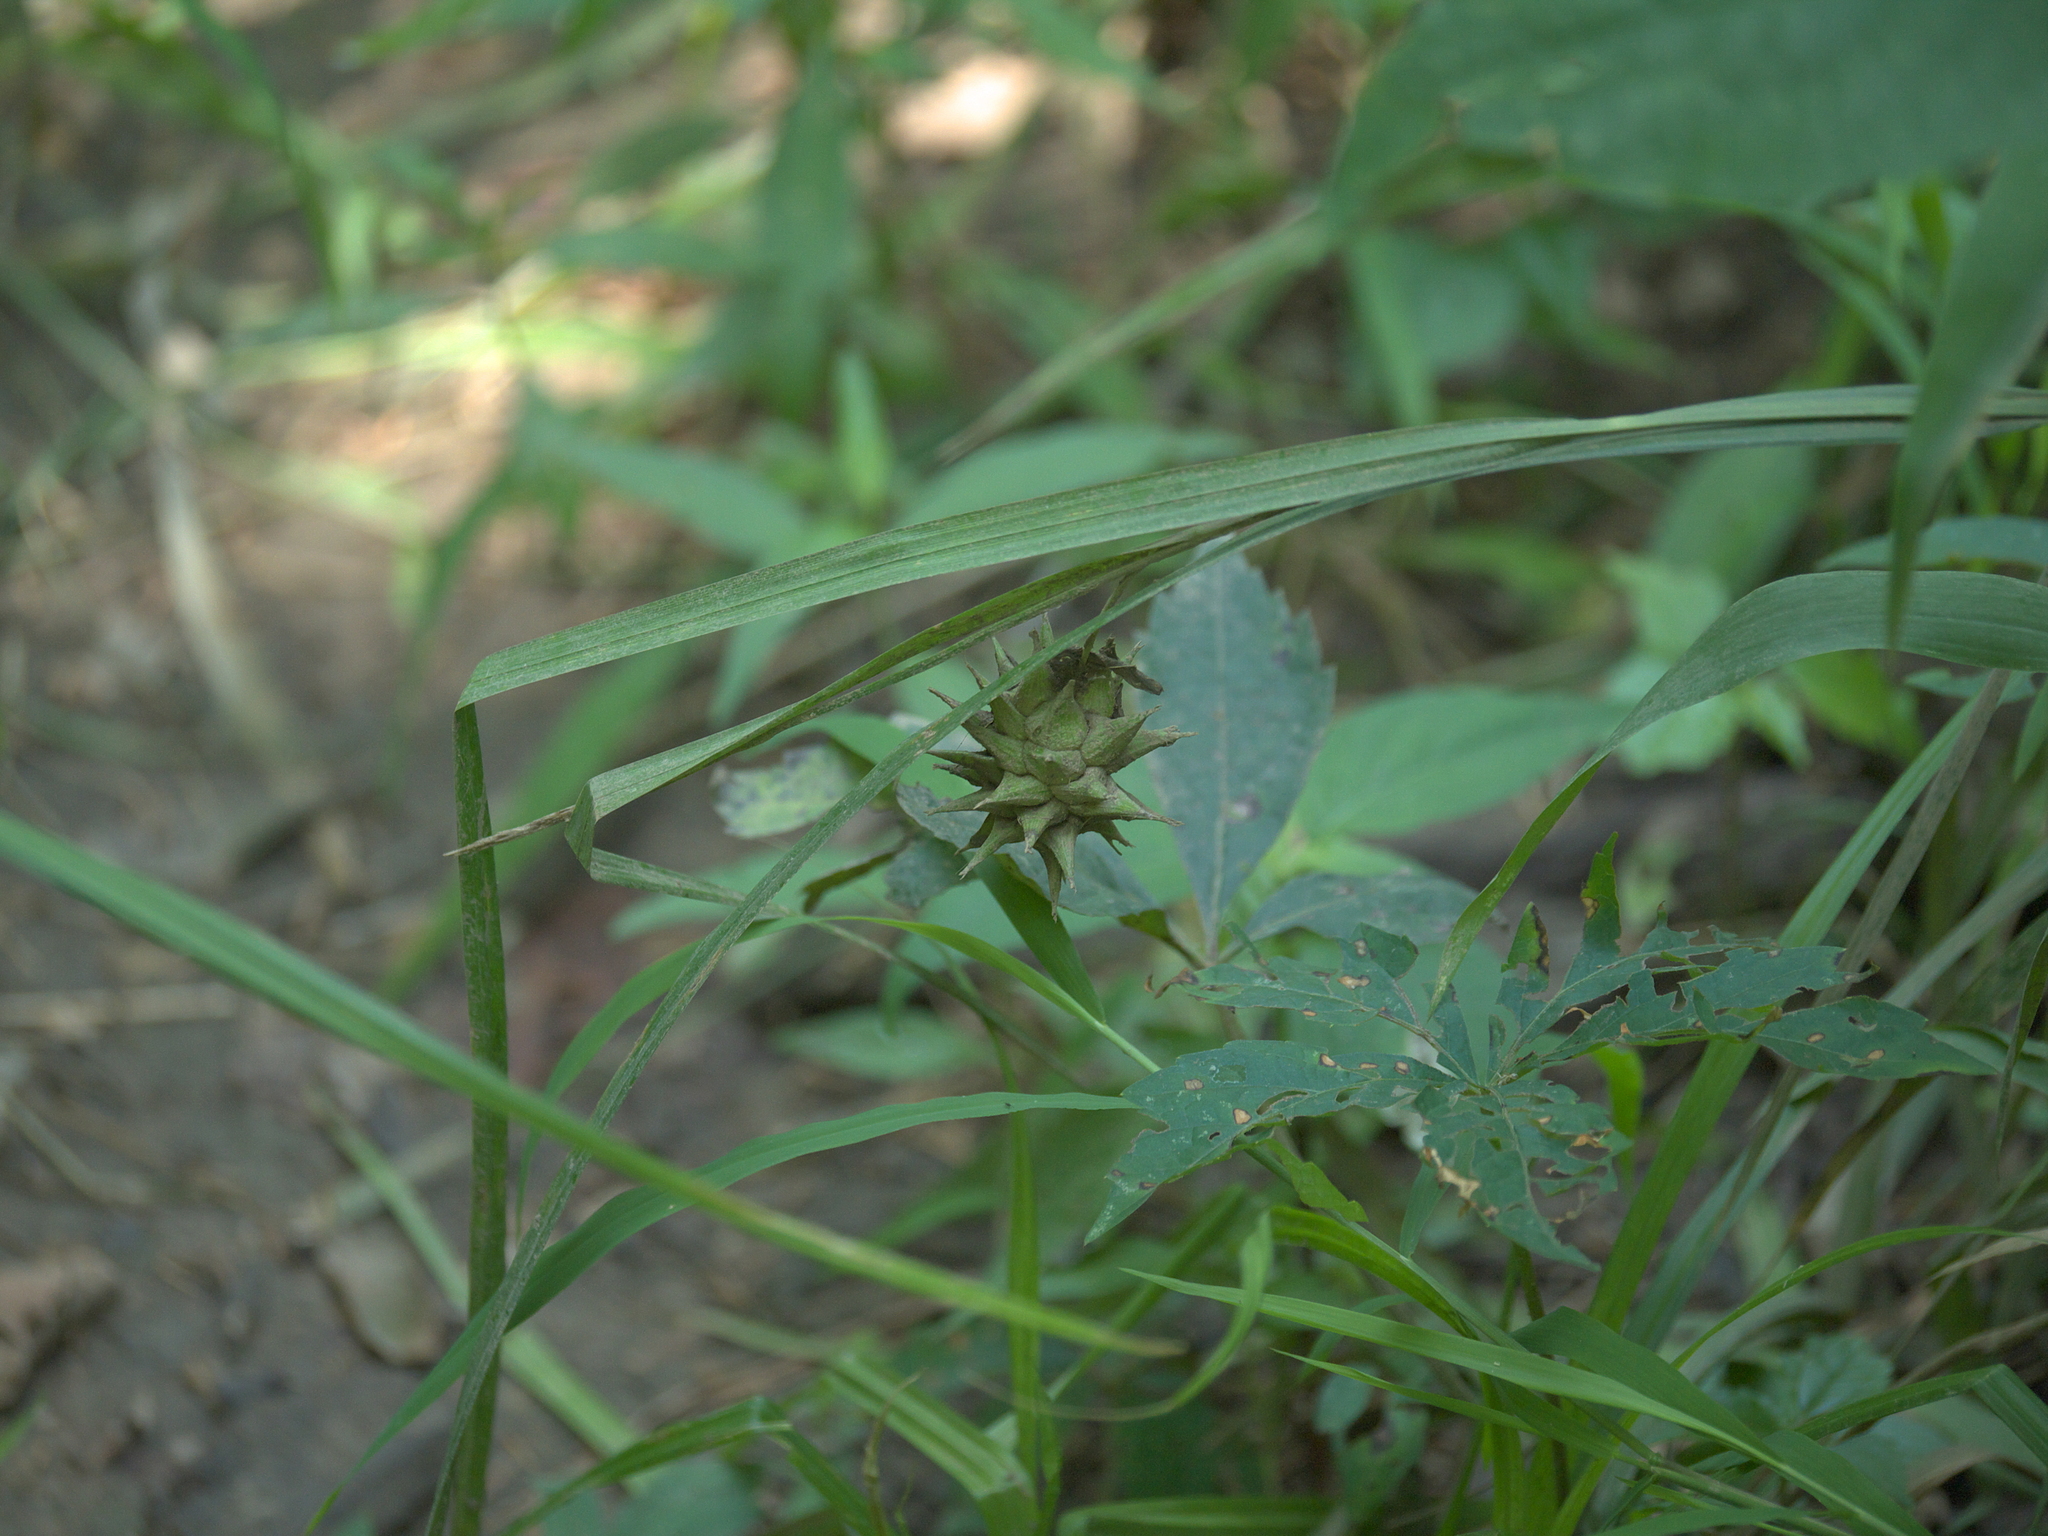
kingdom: Plantae
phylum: Tracheophyta
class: Liliopsida
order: Poales
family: Cyperaceae
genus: Carex
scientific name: Carex grayi
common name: Asa gray's sedge
